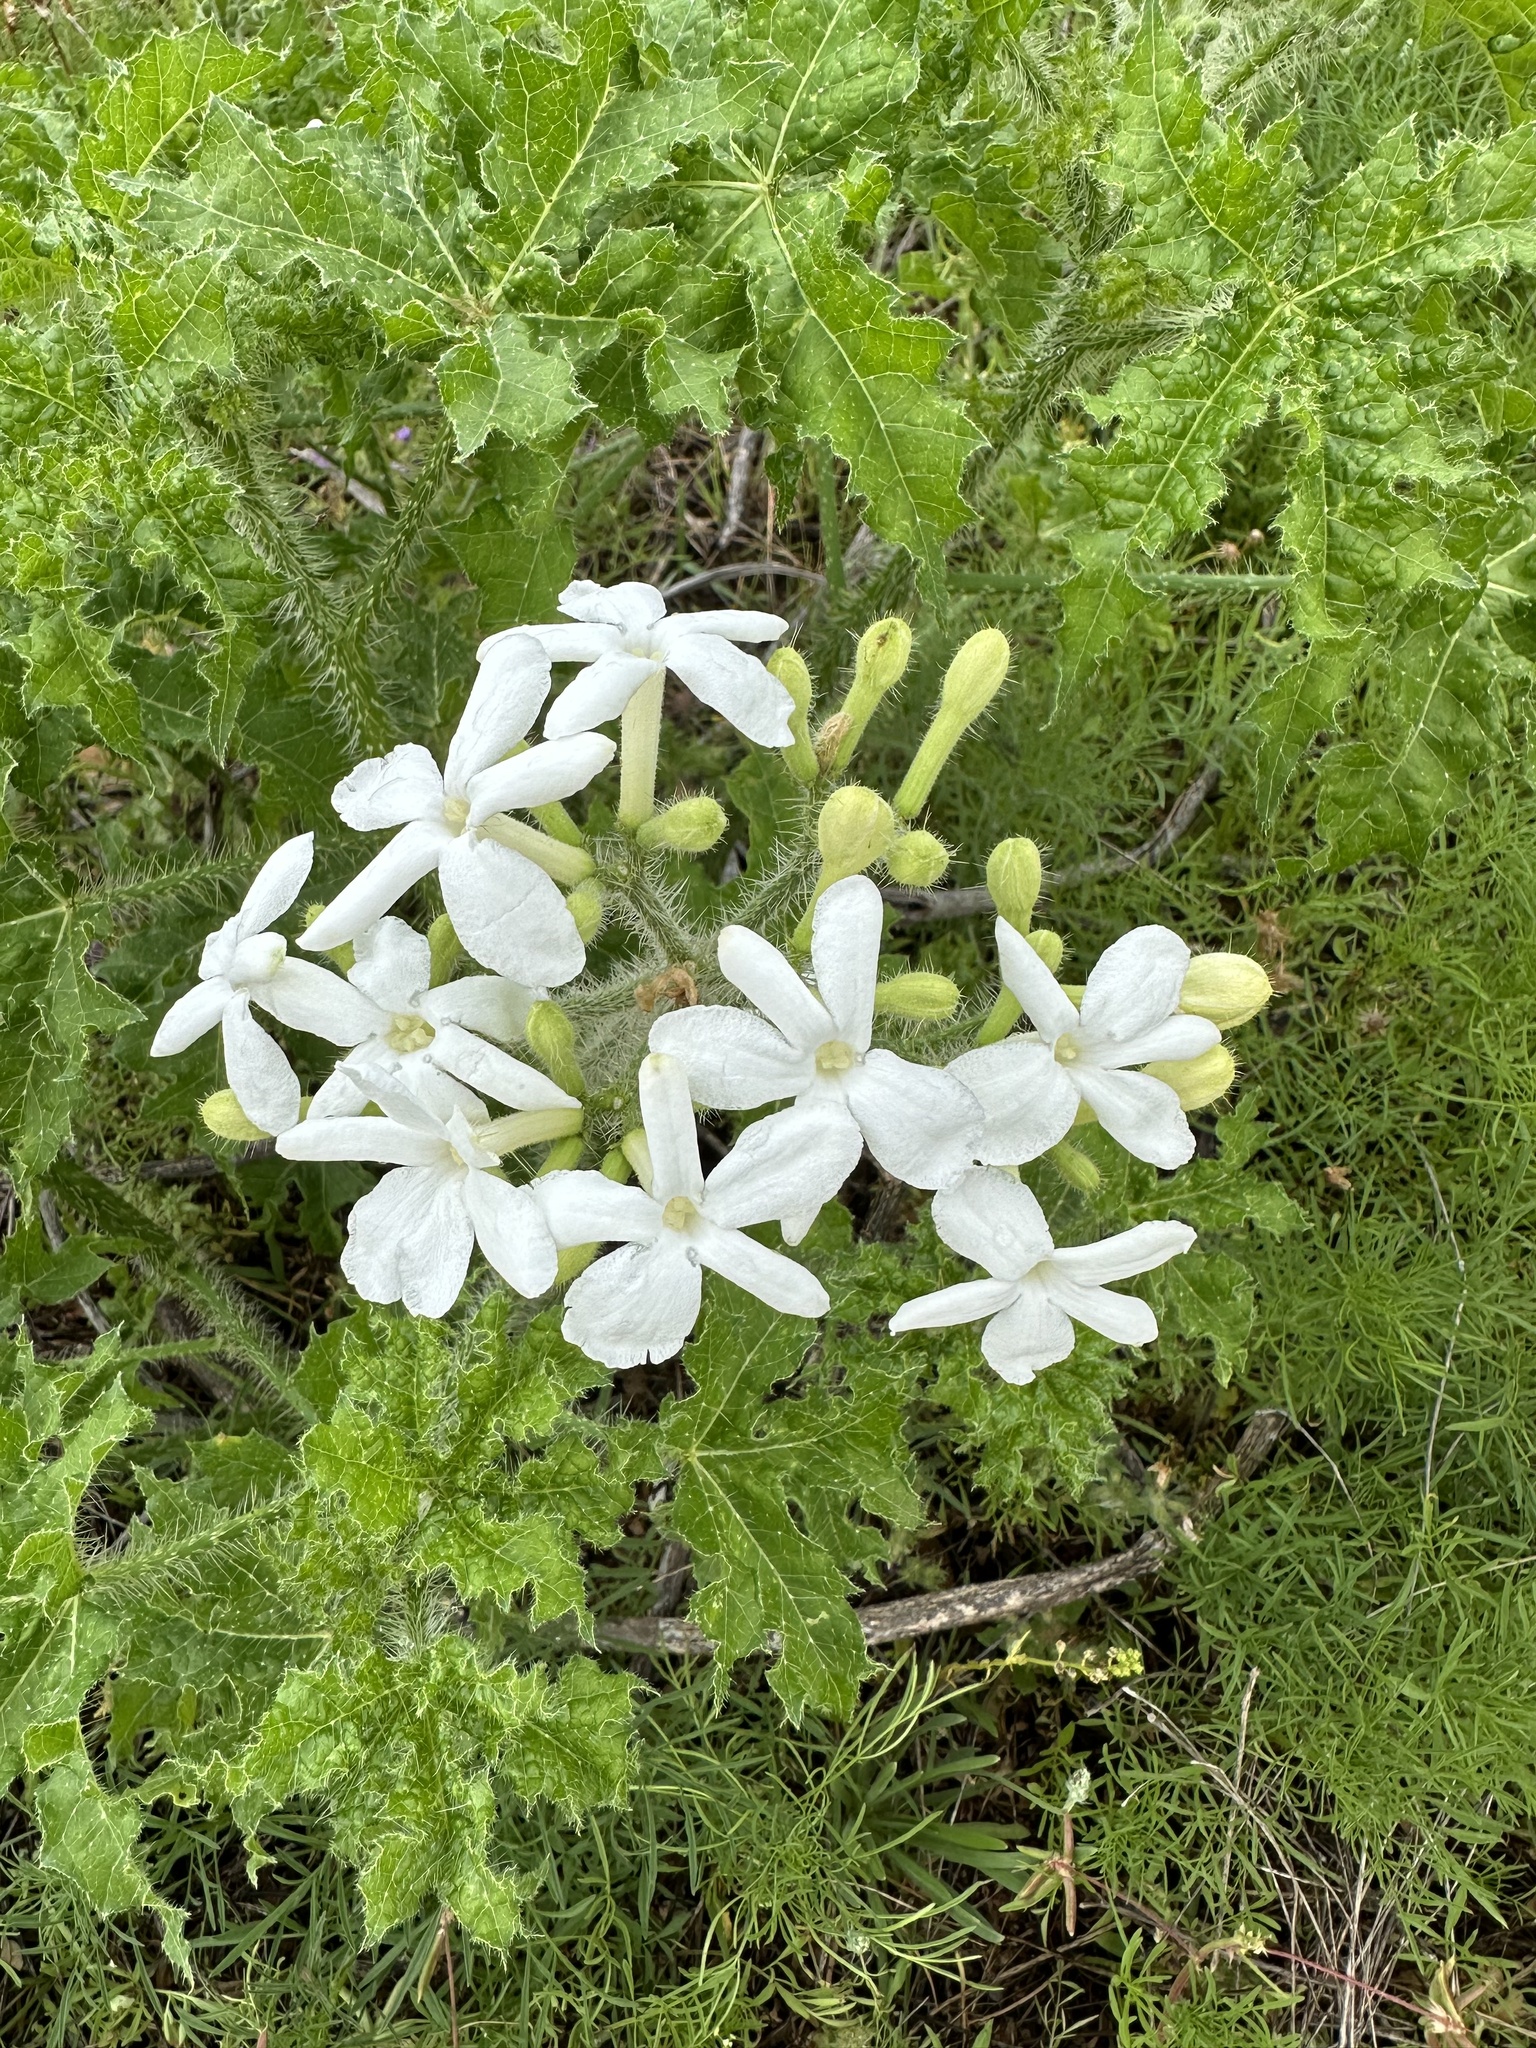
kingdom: Plantae
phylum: Tracheophyta
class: Magnoliopsida
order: Malpighiales
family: Euphorbiaceae
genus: Cnidoscolus
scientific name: Cnidoscolus texanus
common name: Texas bull-nettle
